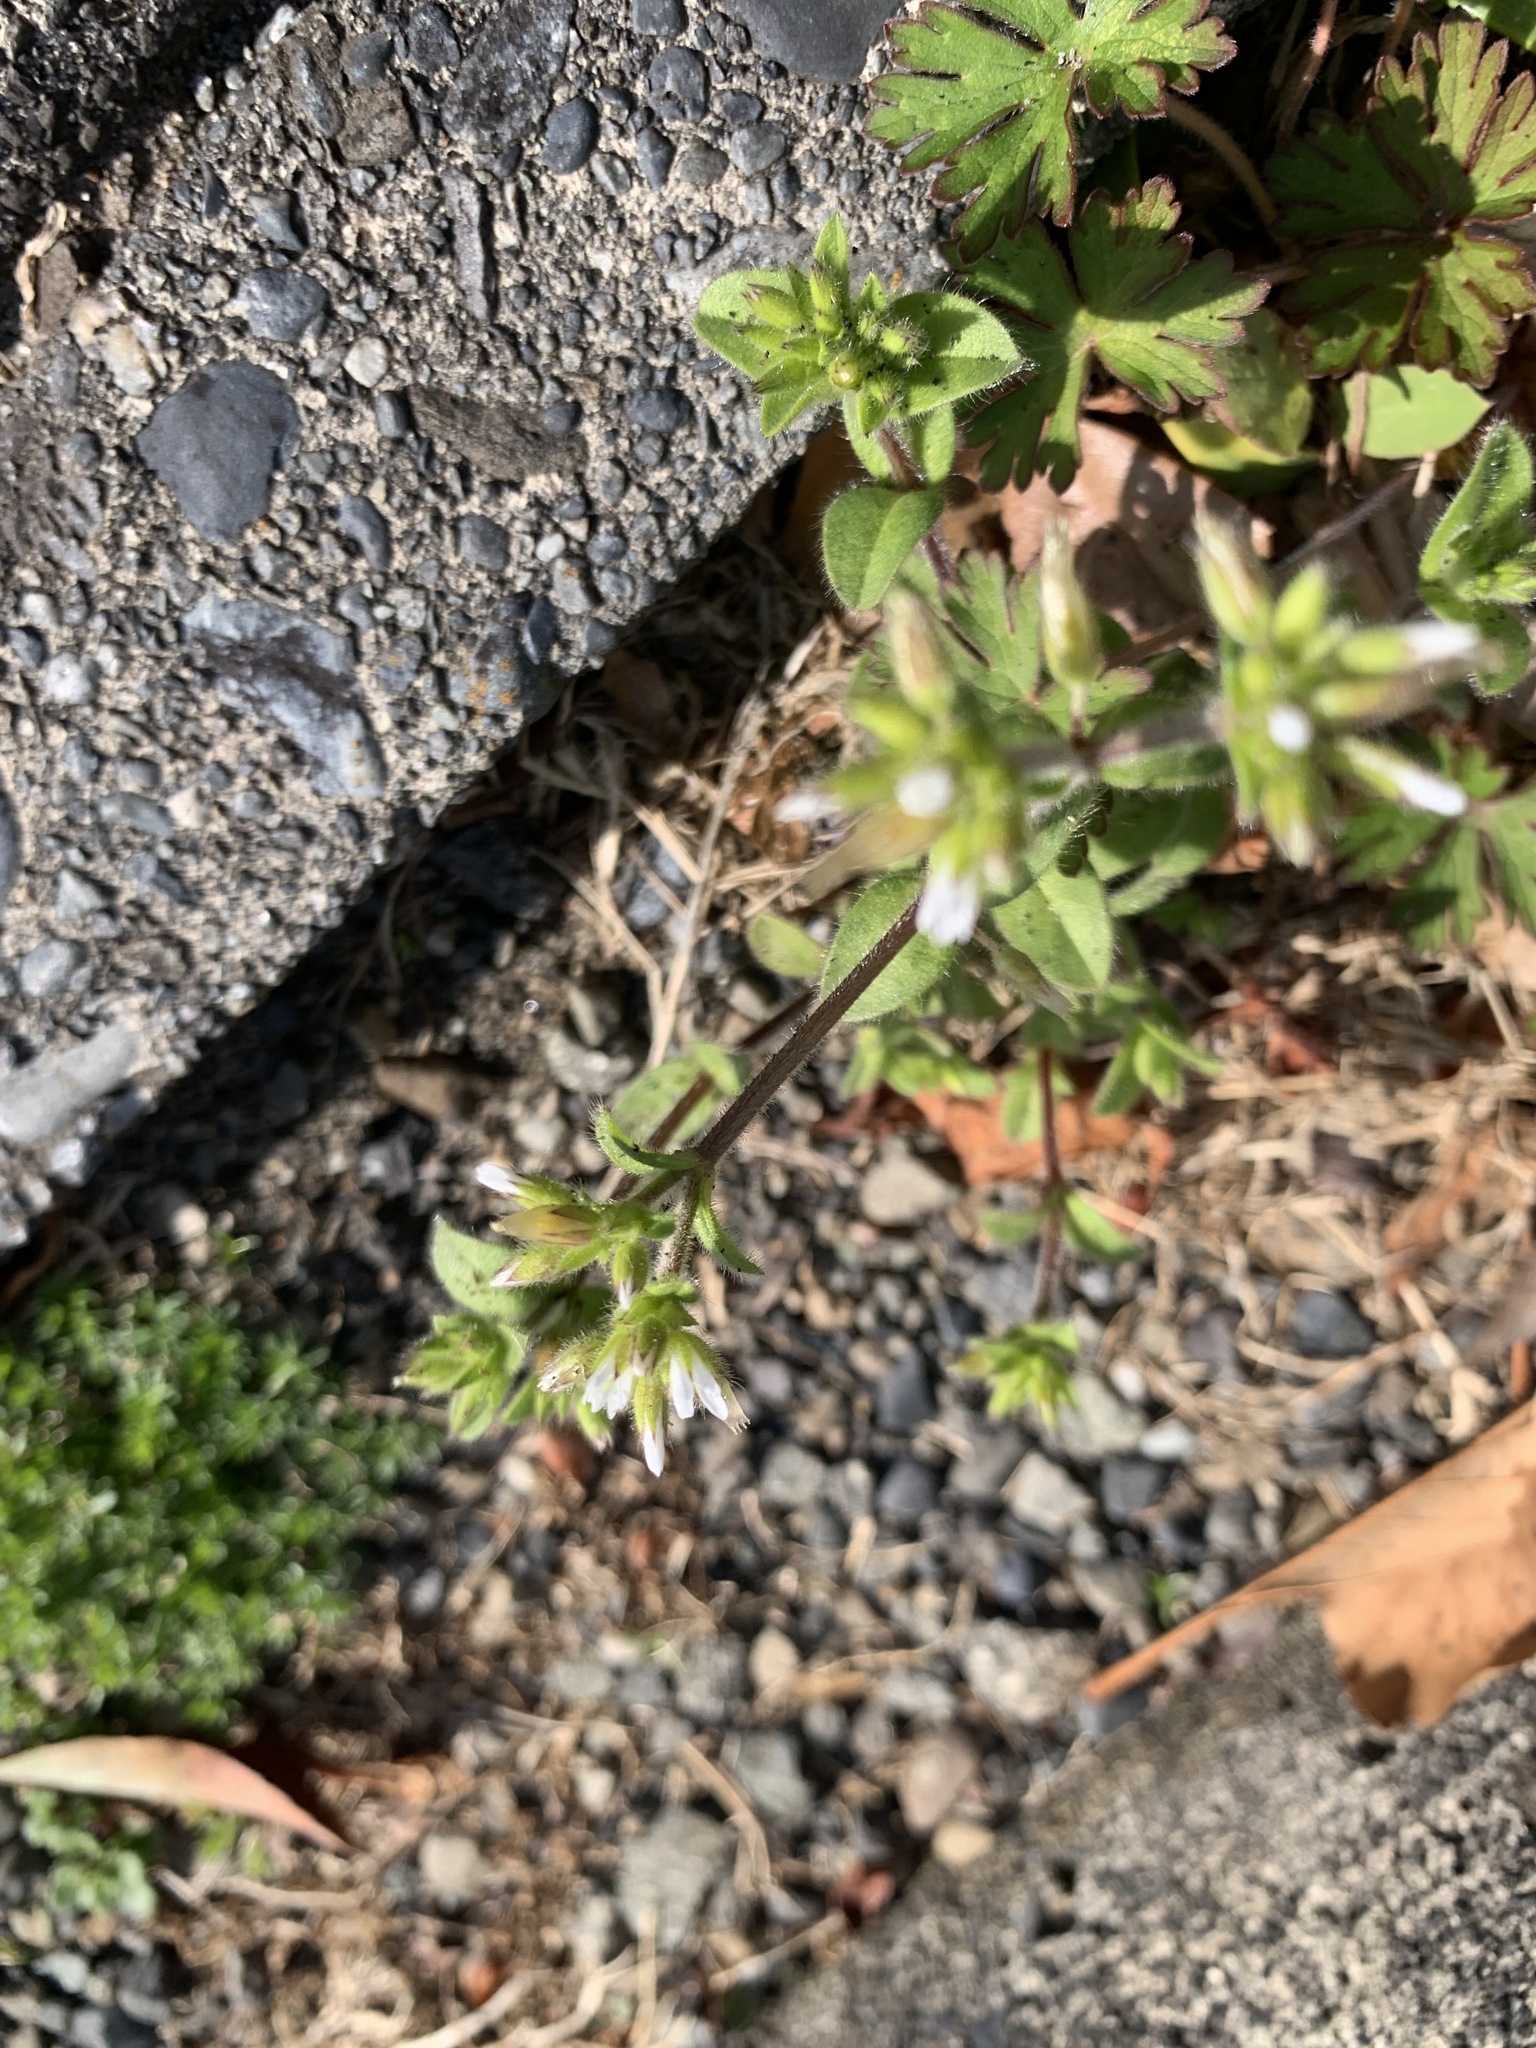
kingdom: Plantae
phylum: Tracheophyta
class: Magnoliopsida
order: Caryophyllales
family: Caryophyllaceae
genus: Cerastium
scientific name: Cerastium glomeratum
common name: Sticky chickweed
